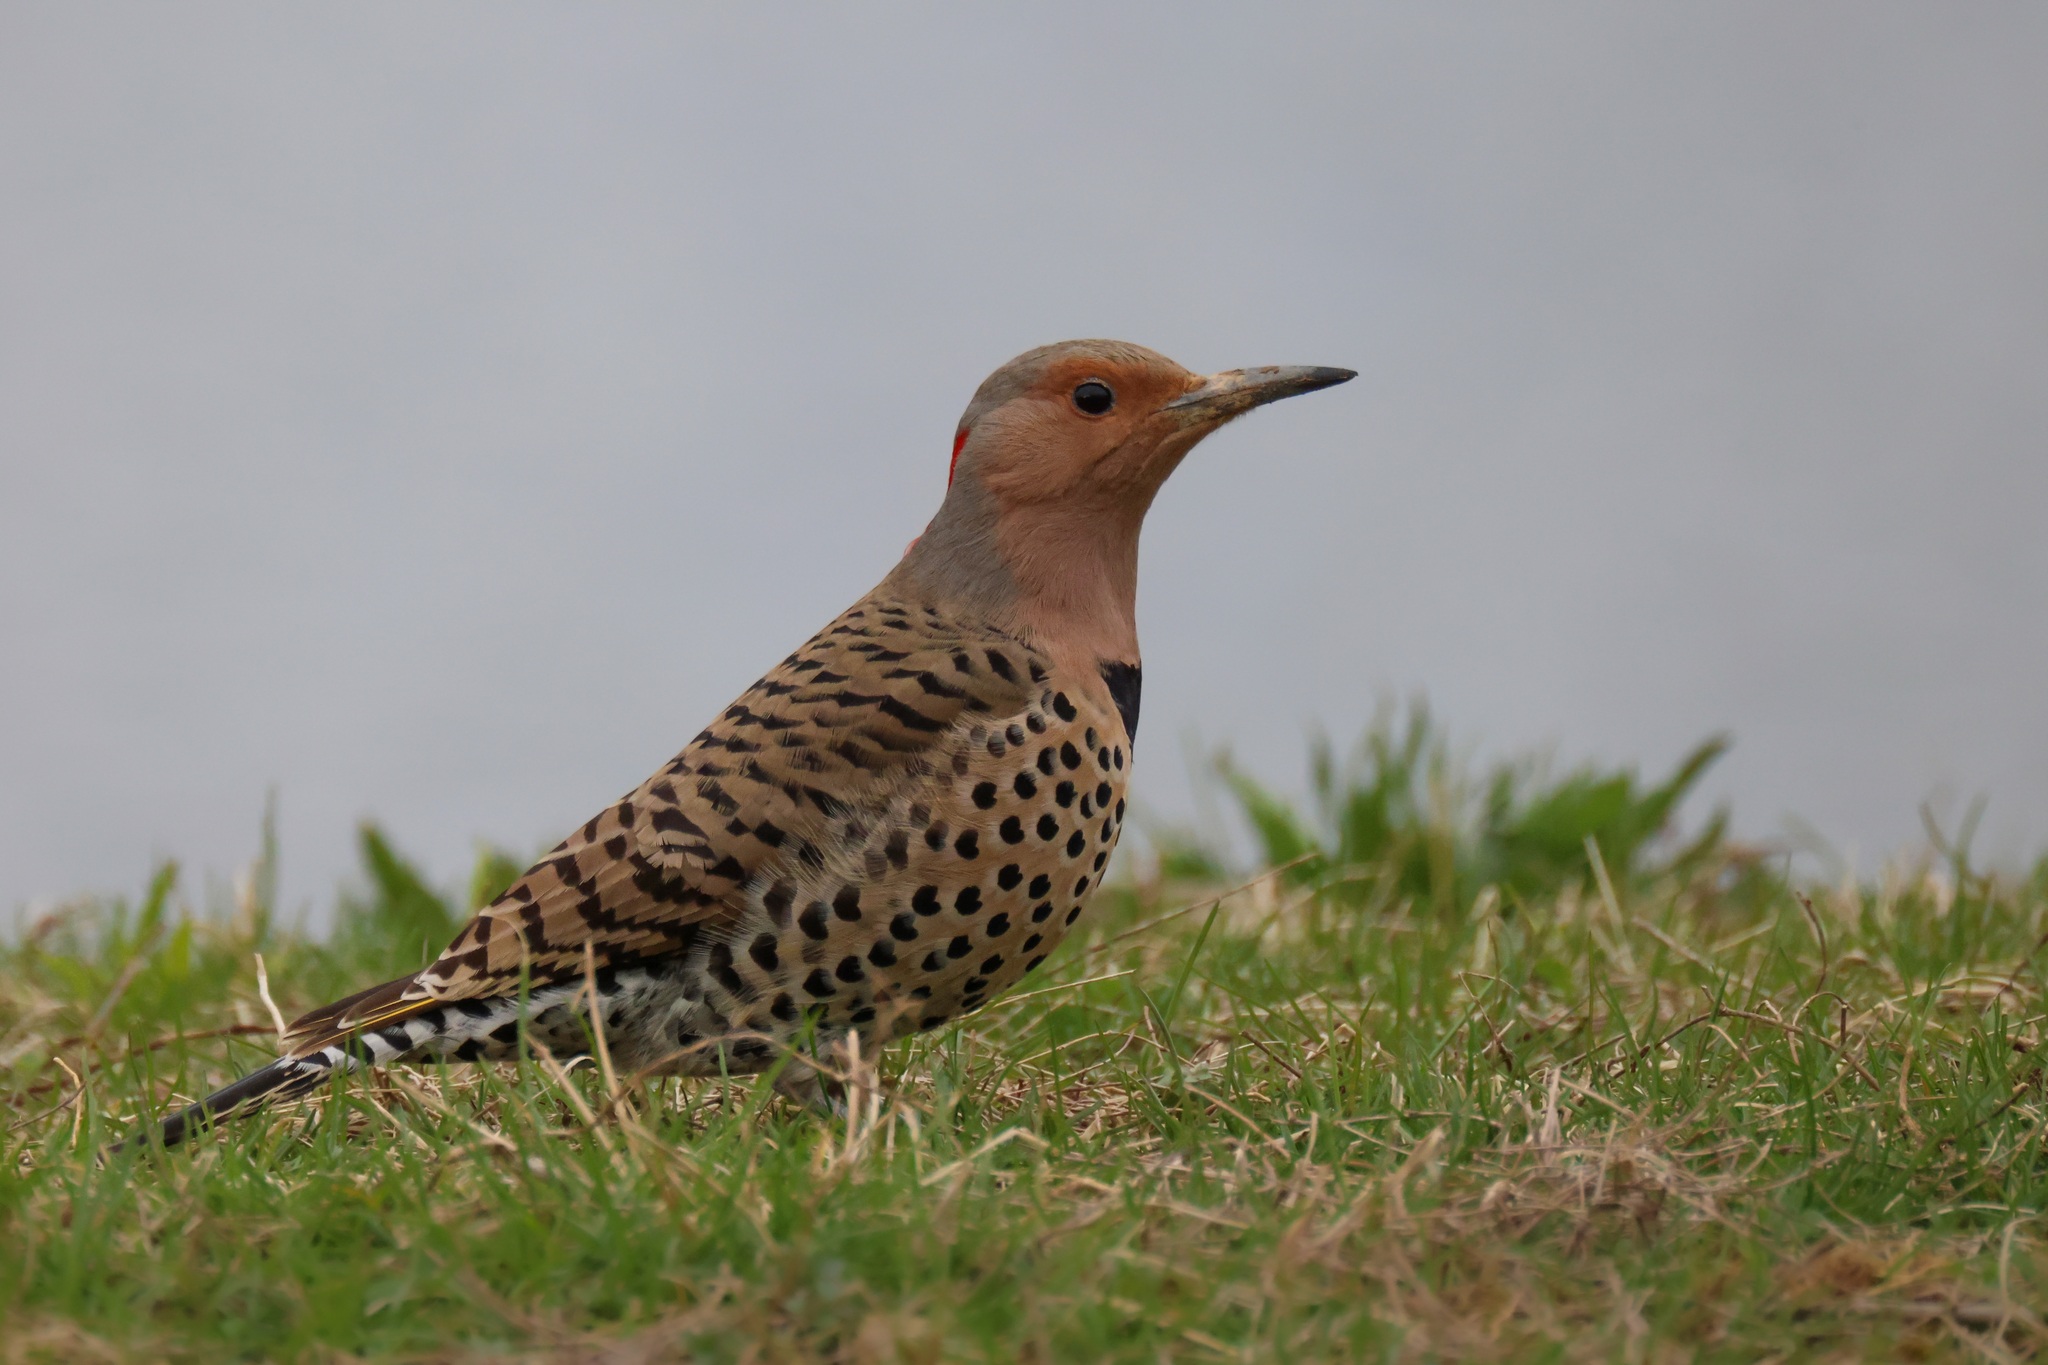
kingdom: Animalia
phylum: Chordata
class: Aves
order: Piciformes
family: Picidae
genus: Colaptes
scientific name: Colaptes auratus
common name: Northern flicker
